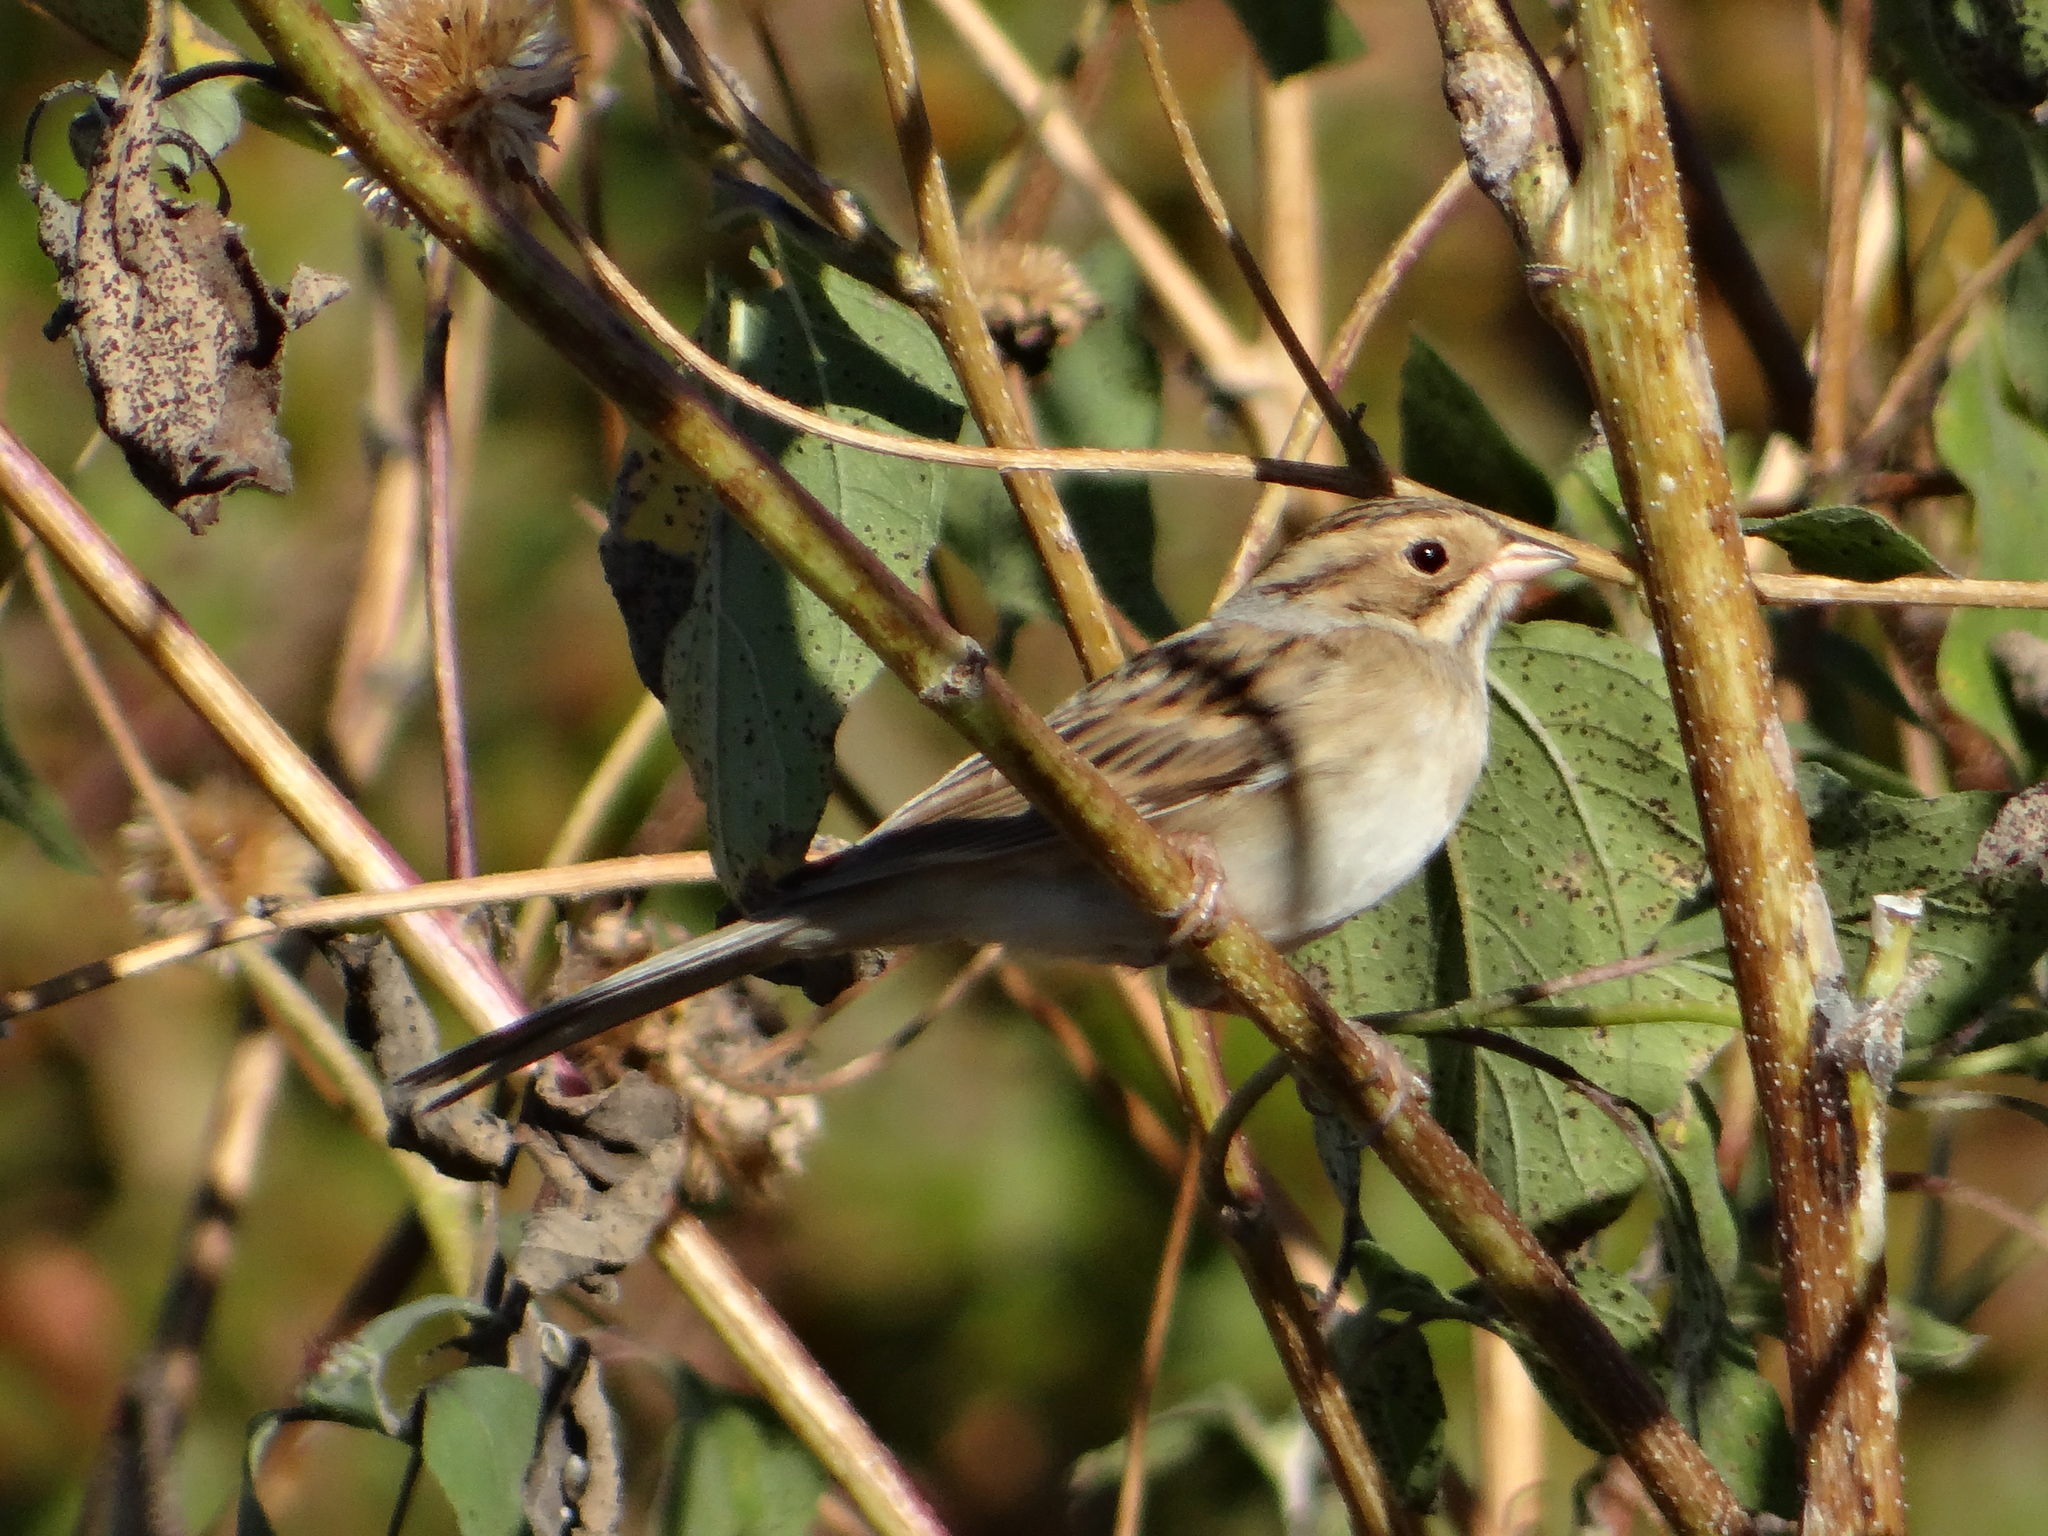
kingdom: Animalia
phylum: Chordata
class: Aves
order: Passeriformes
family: Passerellidae
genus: Spizella
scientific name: Spizella pallida
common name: Clay-colored sparrow
